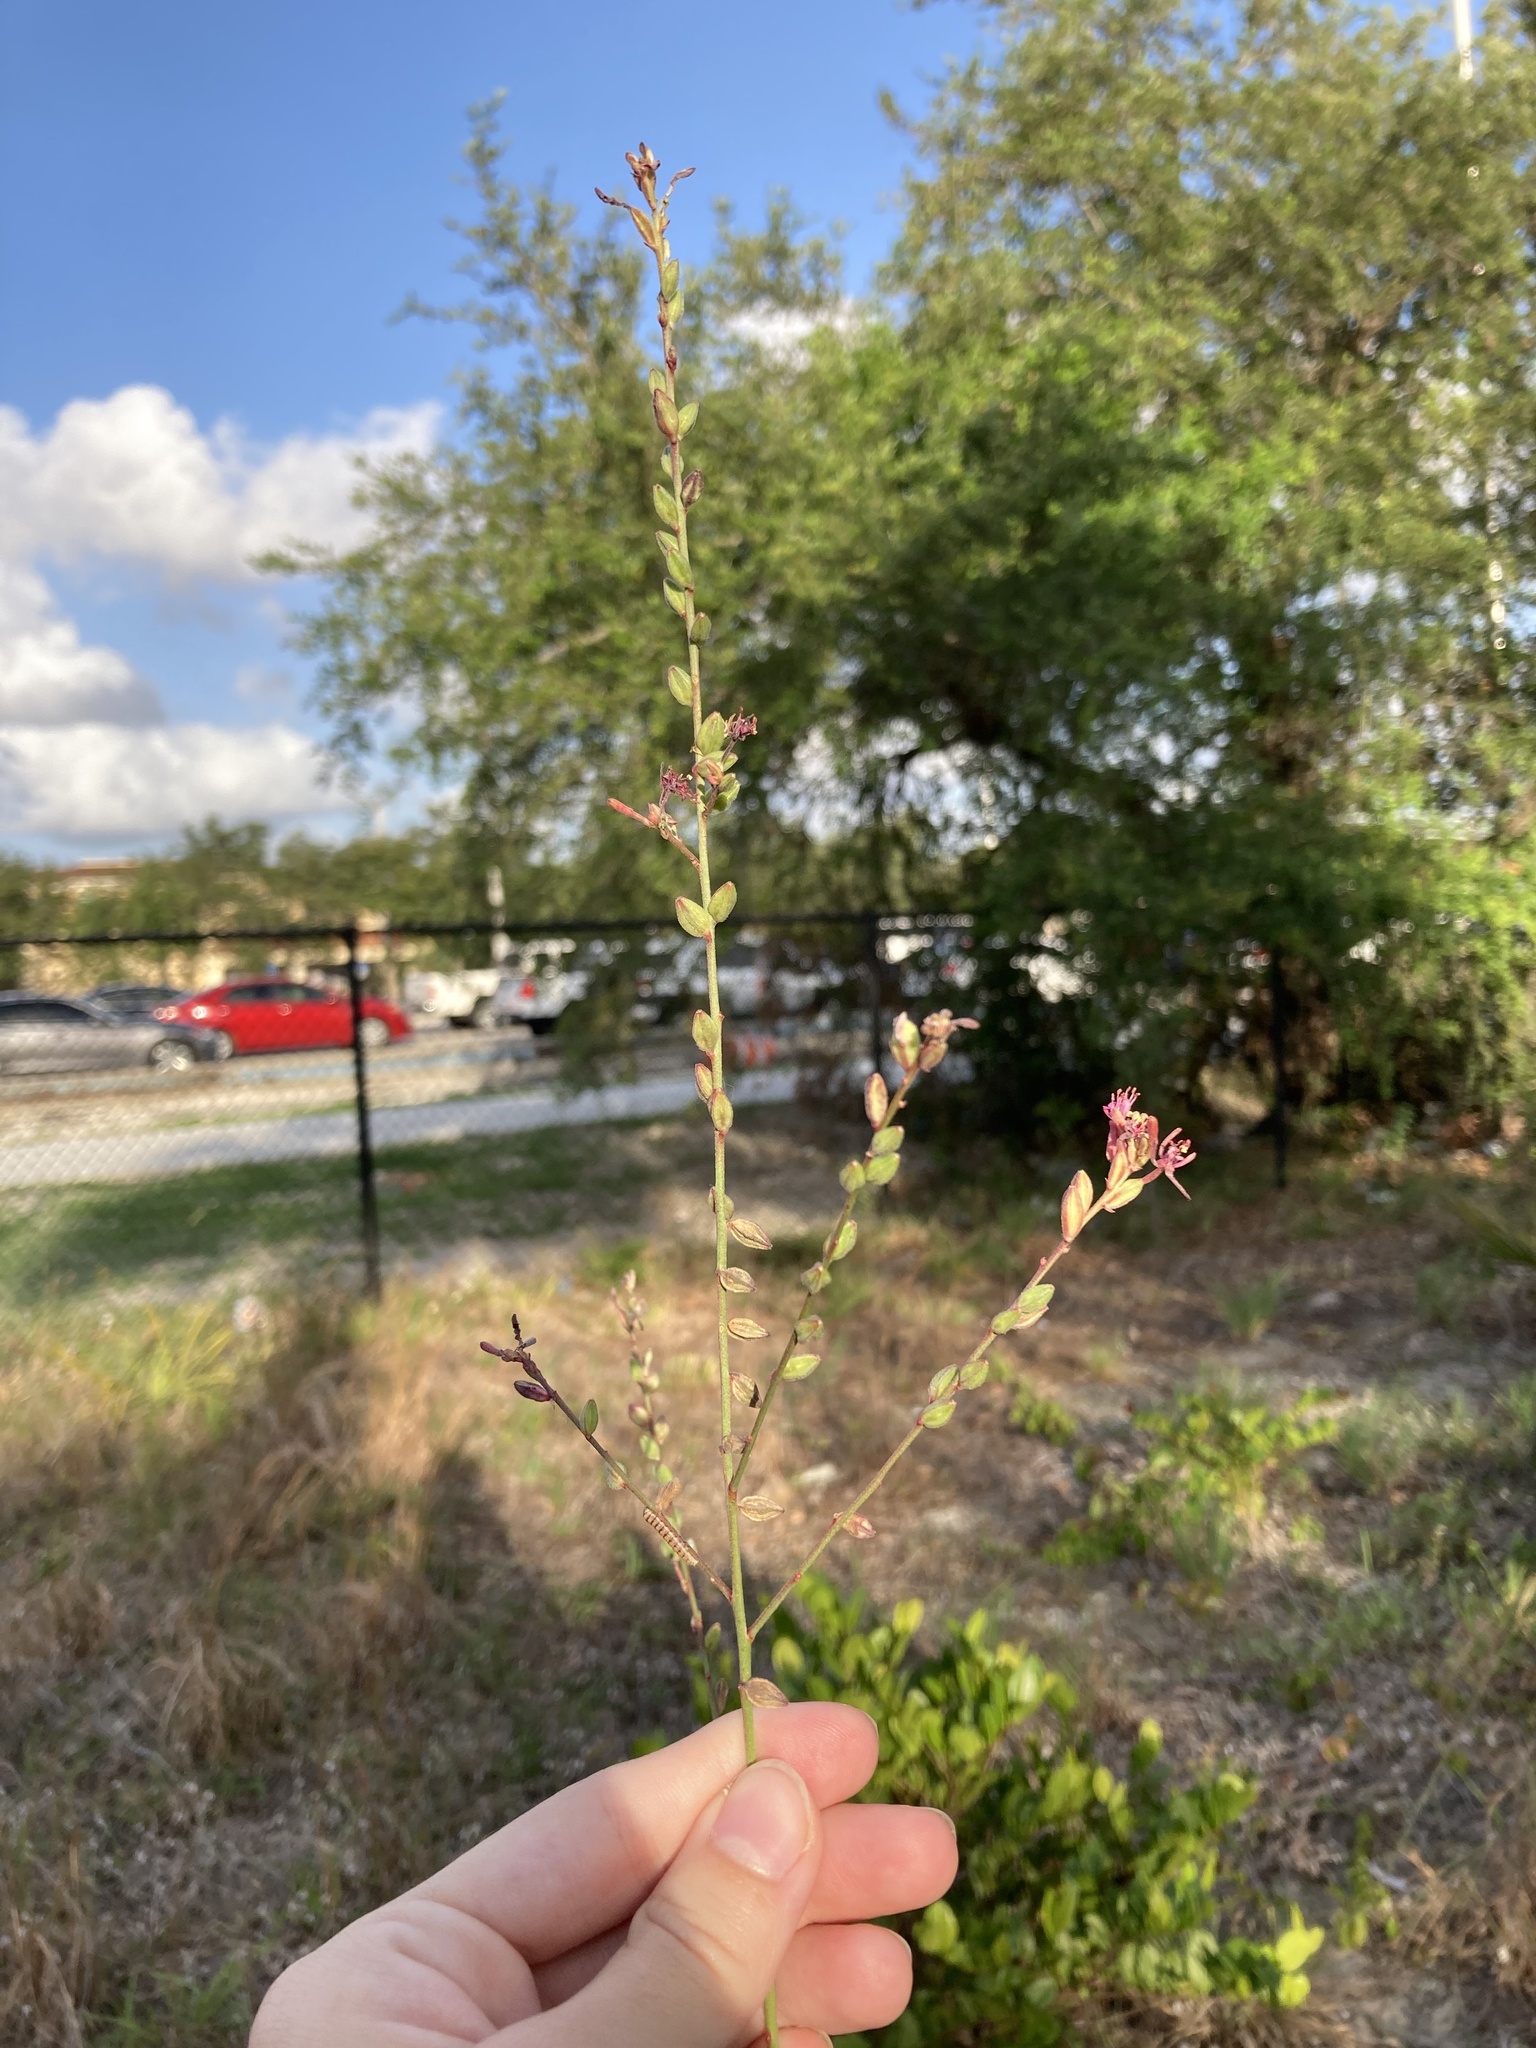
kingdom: Plantae
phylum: Tracheophyta
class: Magnoliopsida
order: Myrtales
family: Onagraceae
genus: Oenothera
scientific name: Oenothera simulans
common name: Southern beeblossom
